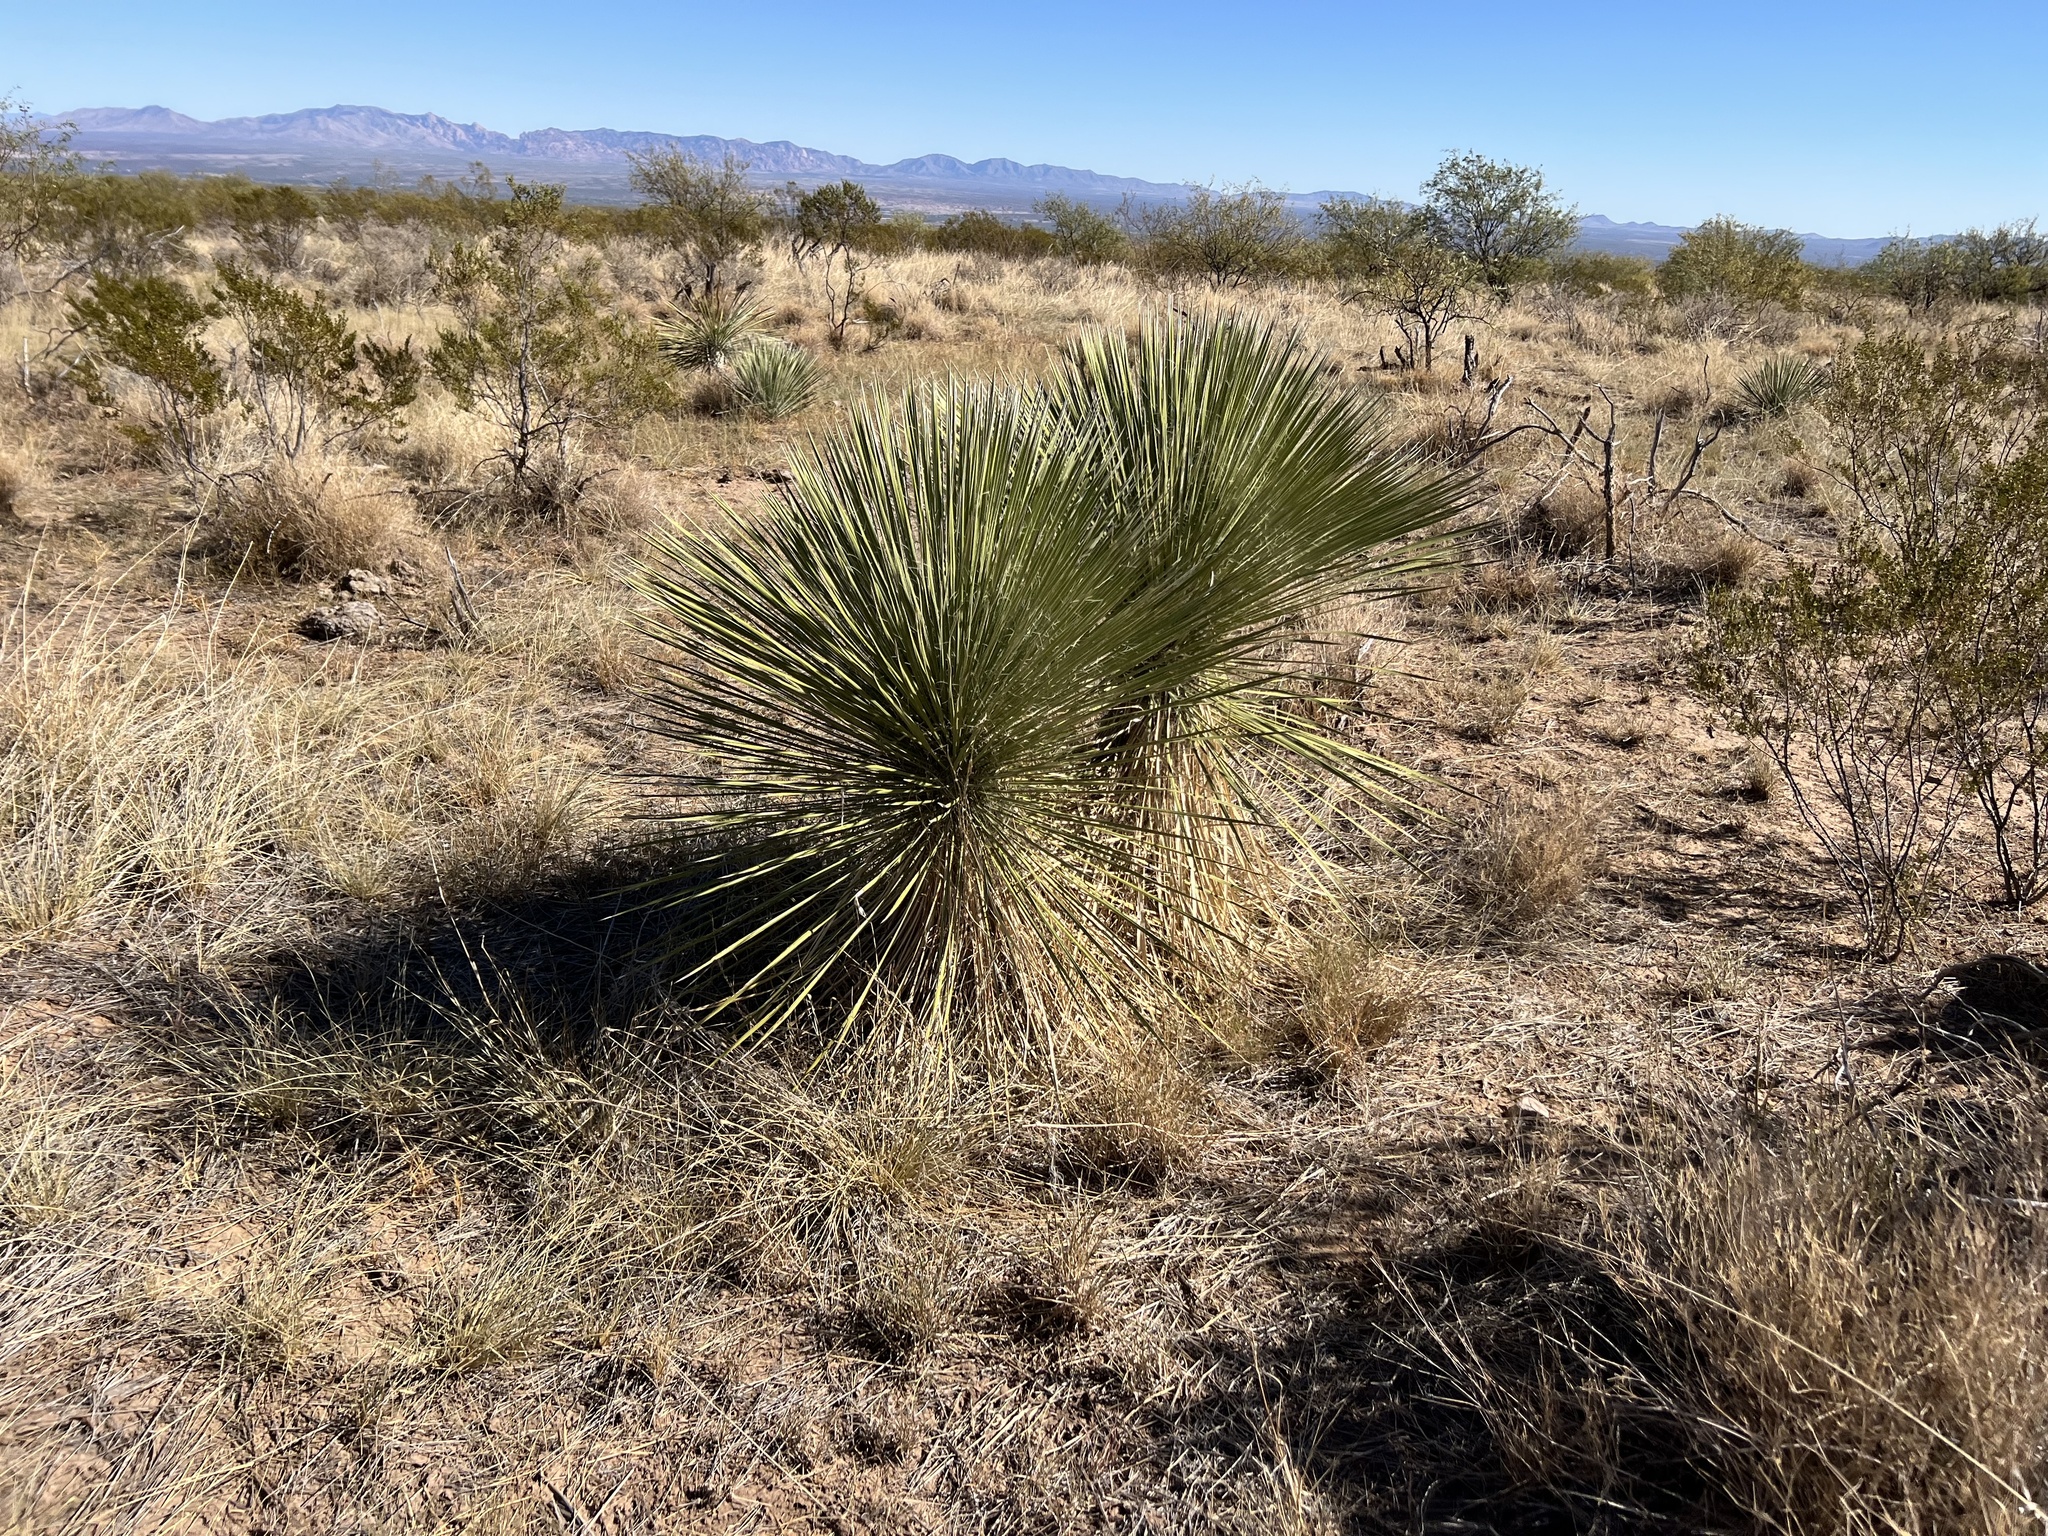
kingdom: Plantae
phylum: Tracheophyta
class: Liliopsida
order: Asparagales
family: Asparagaceae
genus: Yucca
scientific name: Yucca elata
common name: Palmella
